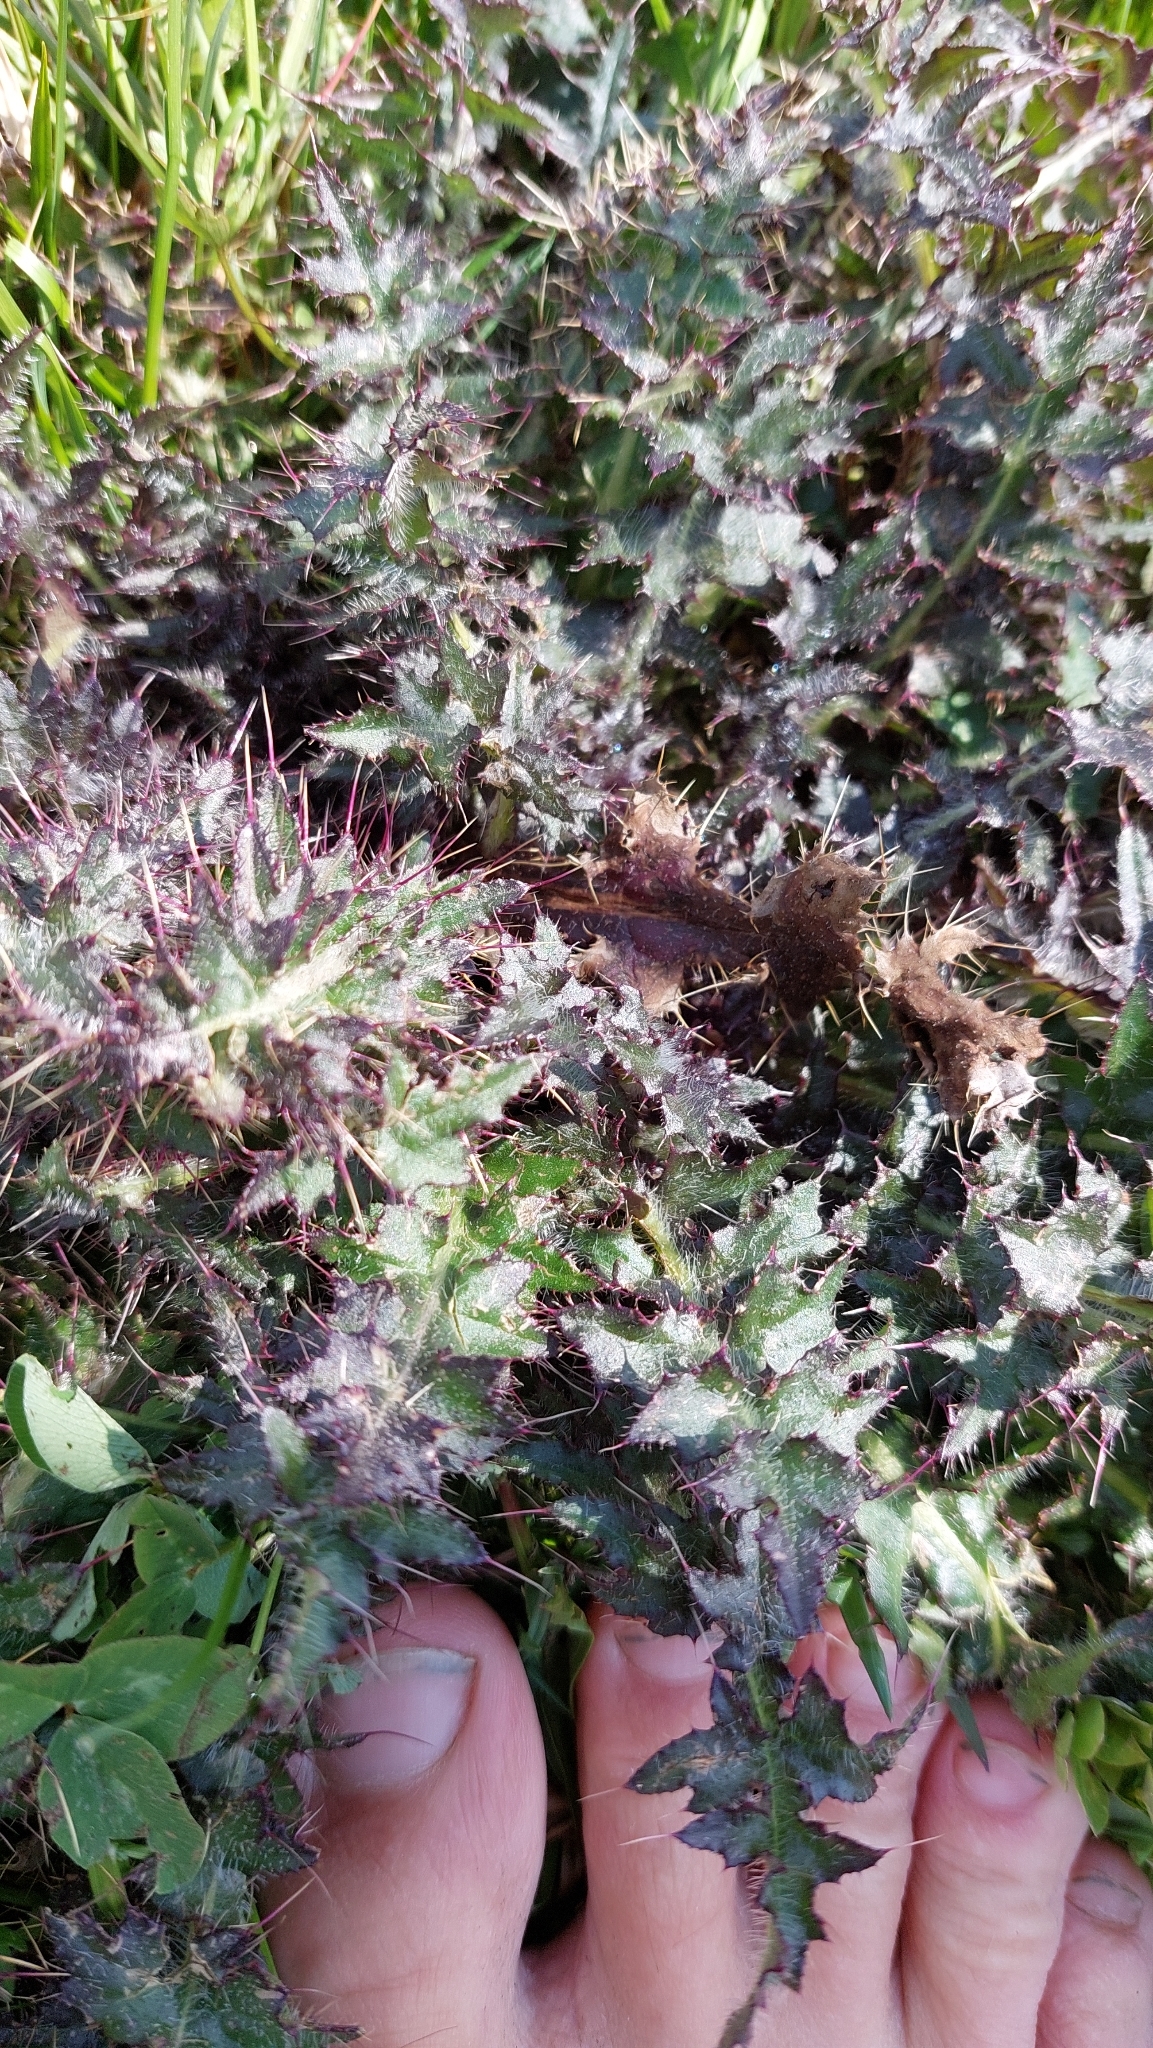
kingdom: Plantae
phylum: Tracheophyta
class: Magnoliopsida
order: Asterales
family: Asteraceae
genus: Cirsium
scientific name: Cirsium palustre
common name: Marsh thistle
